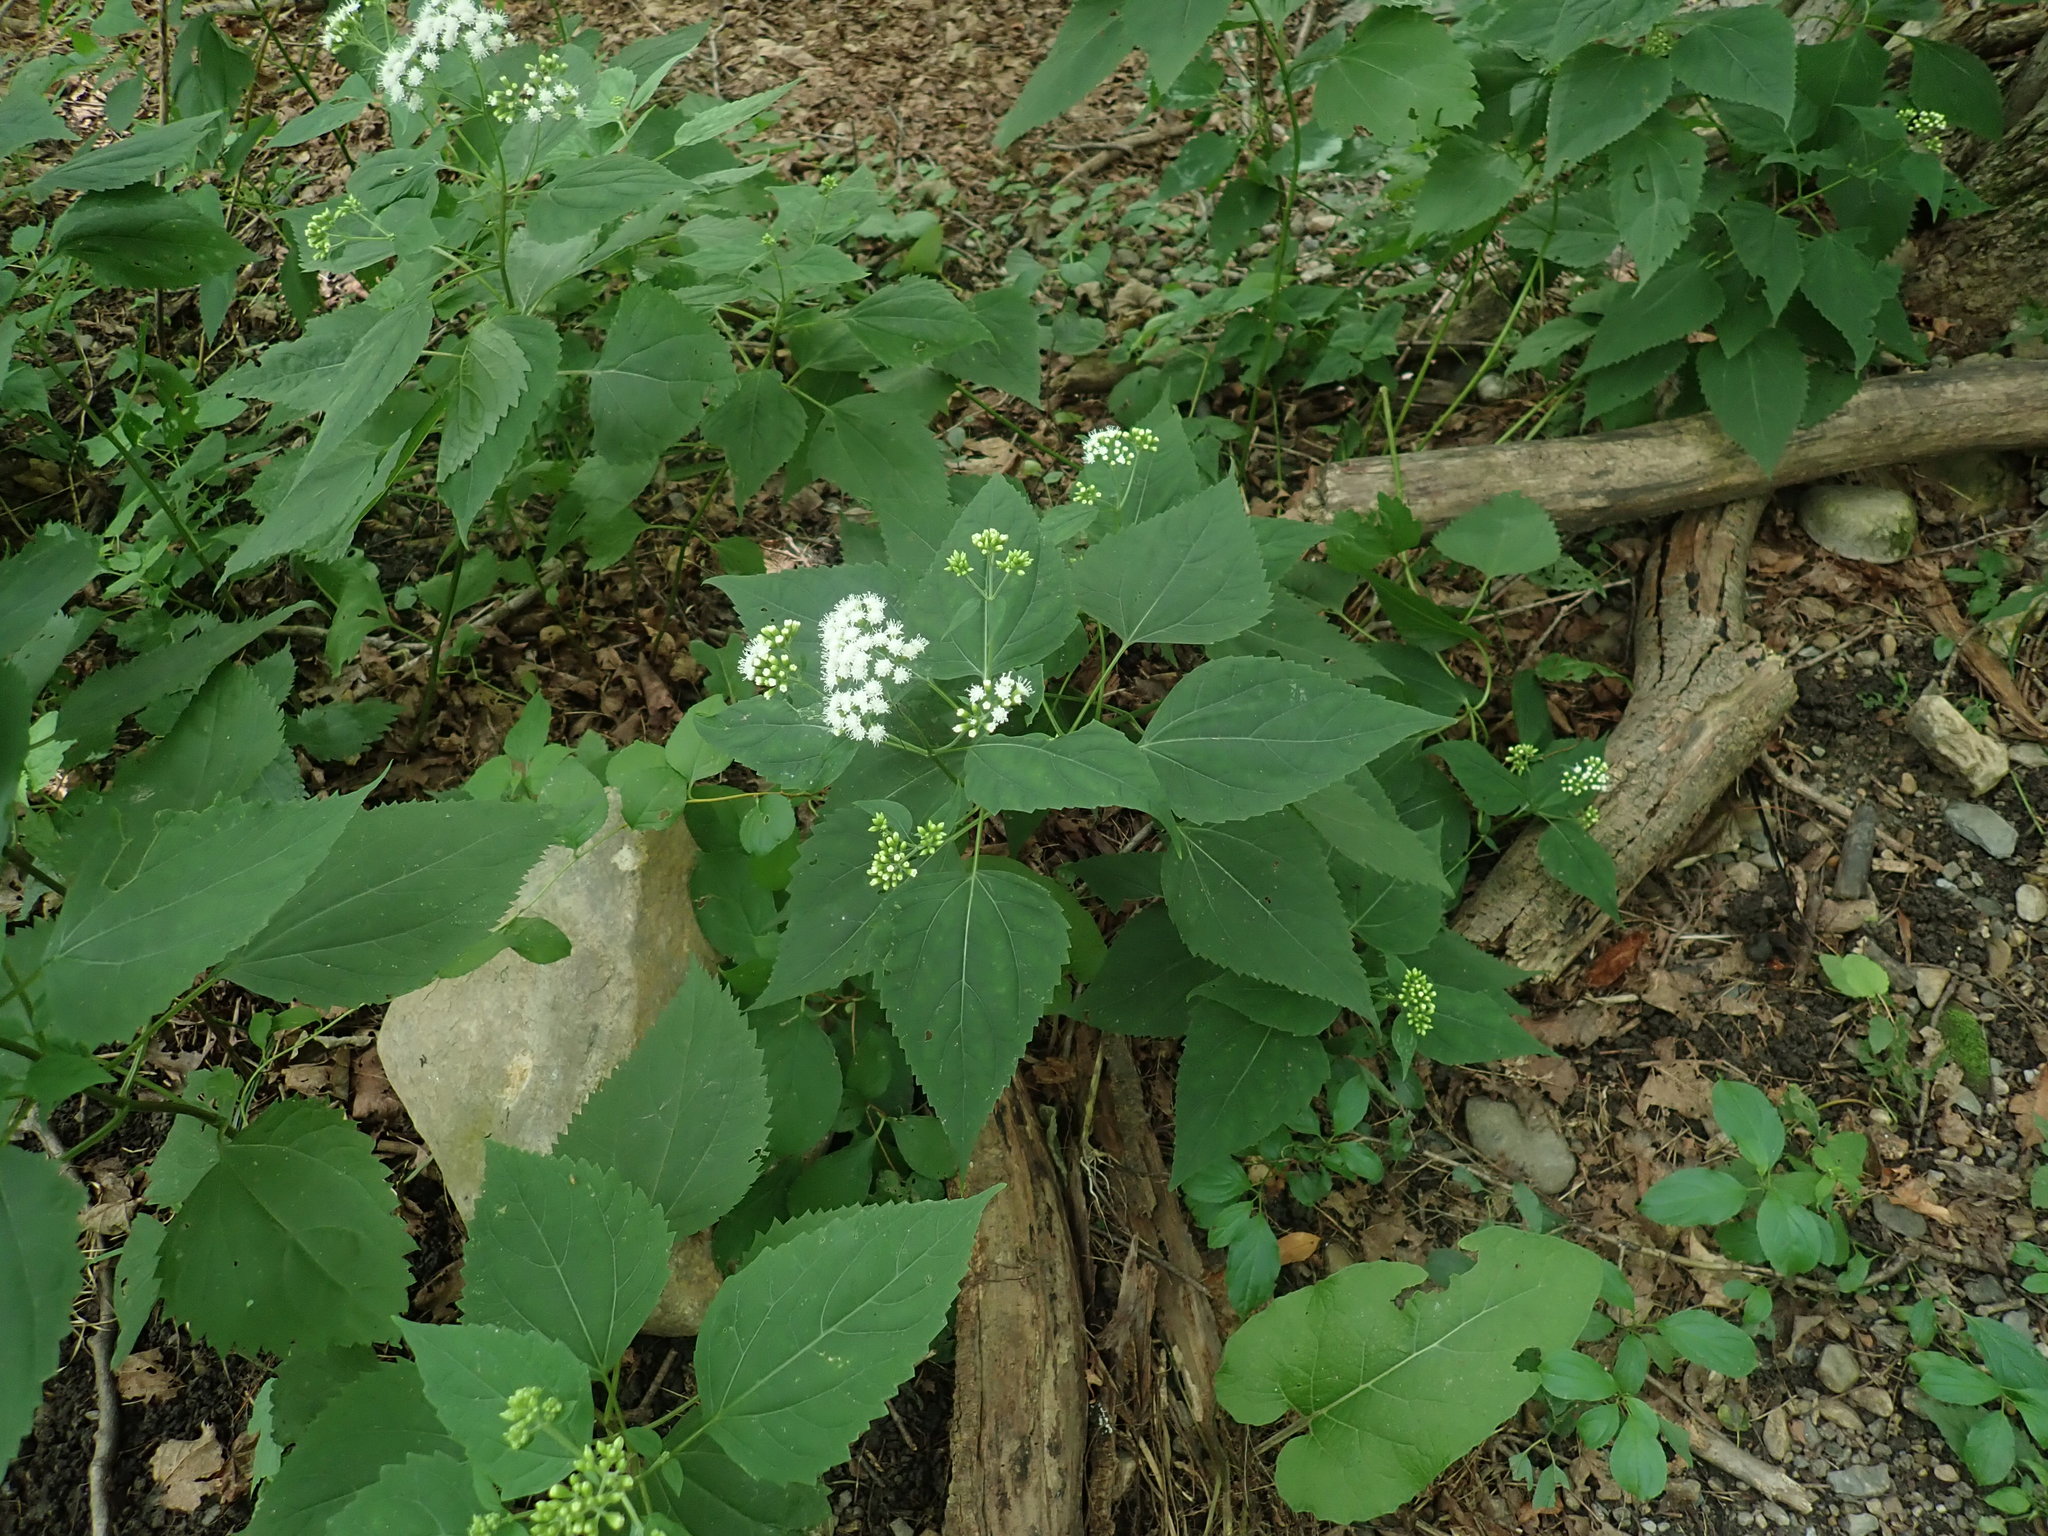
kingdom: Plantae
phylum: Tracheophyta
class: Magnoliopsida
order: Asterales
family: Asteraceae
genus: Ageratina
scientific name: Ageratina altissima
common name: White snakeroot
